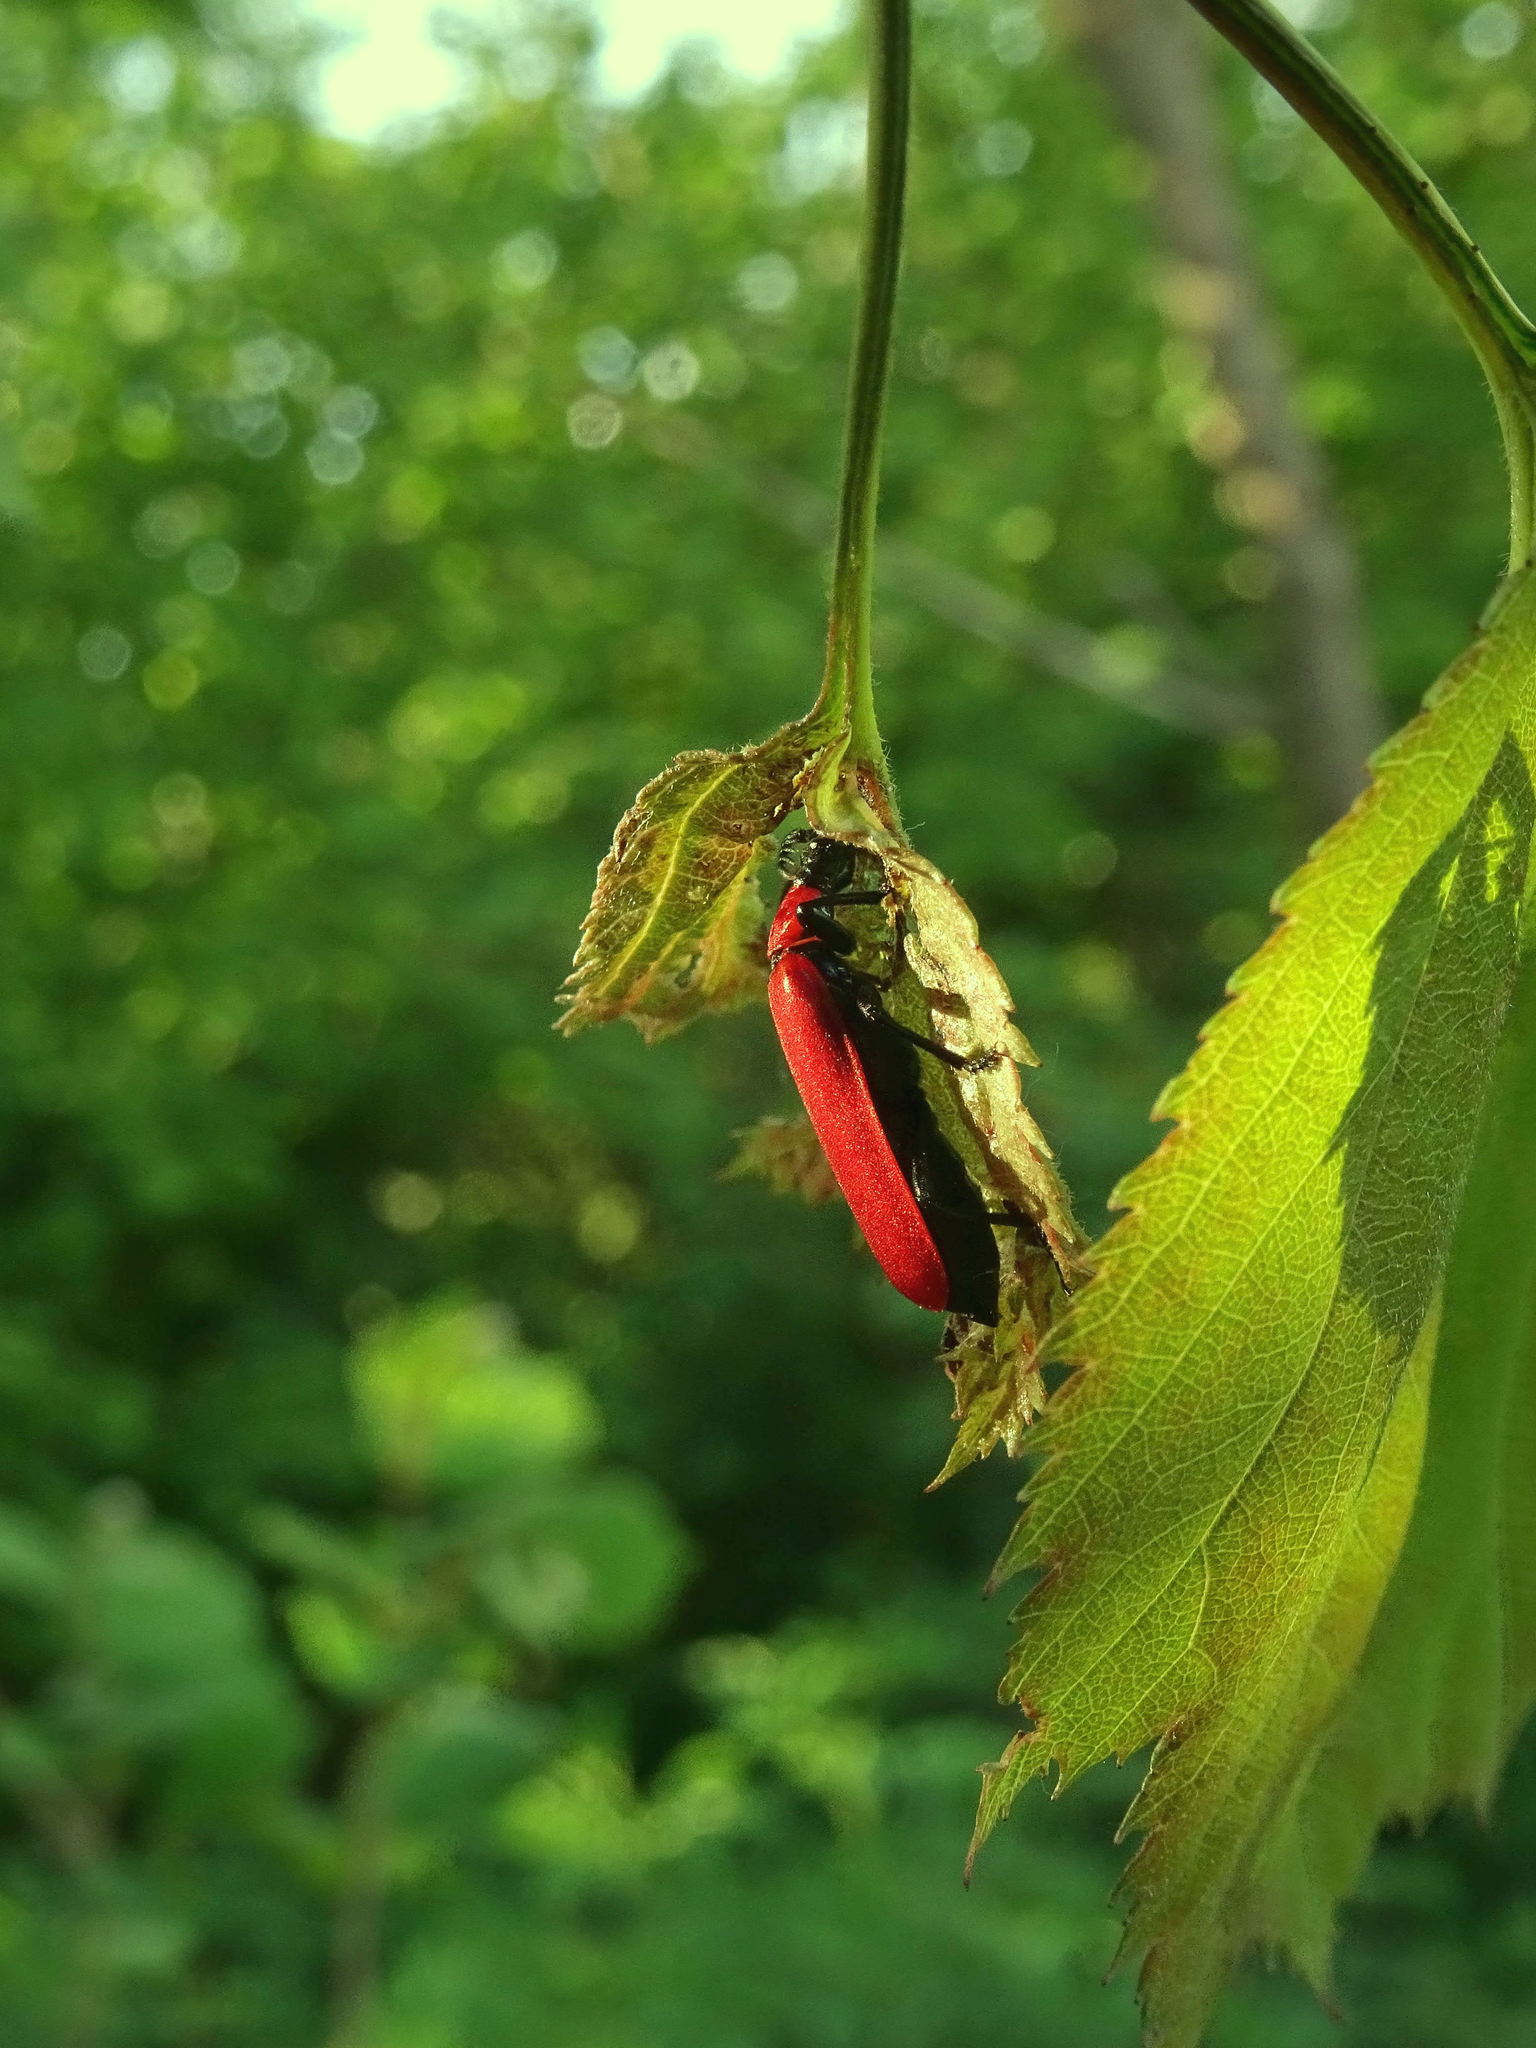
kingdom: Animalia
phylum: Arthropoda
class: Insecta
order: Coleoptera
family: Pyrochroidae
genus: Pyrochroa
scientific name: Pyrochroa coccinea
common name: Black-headed cardinal beetle
